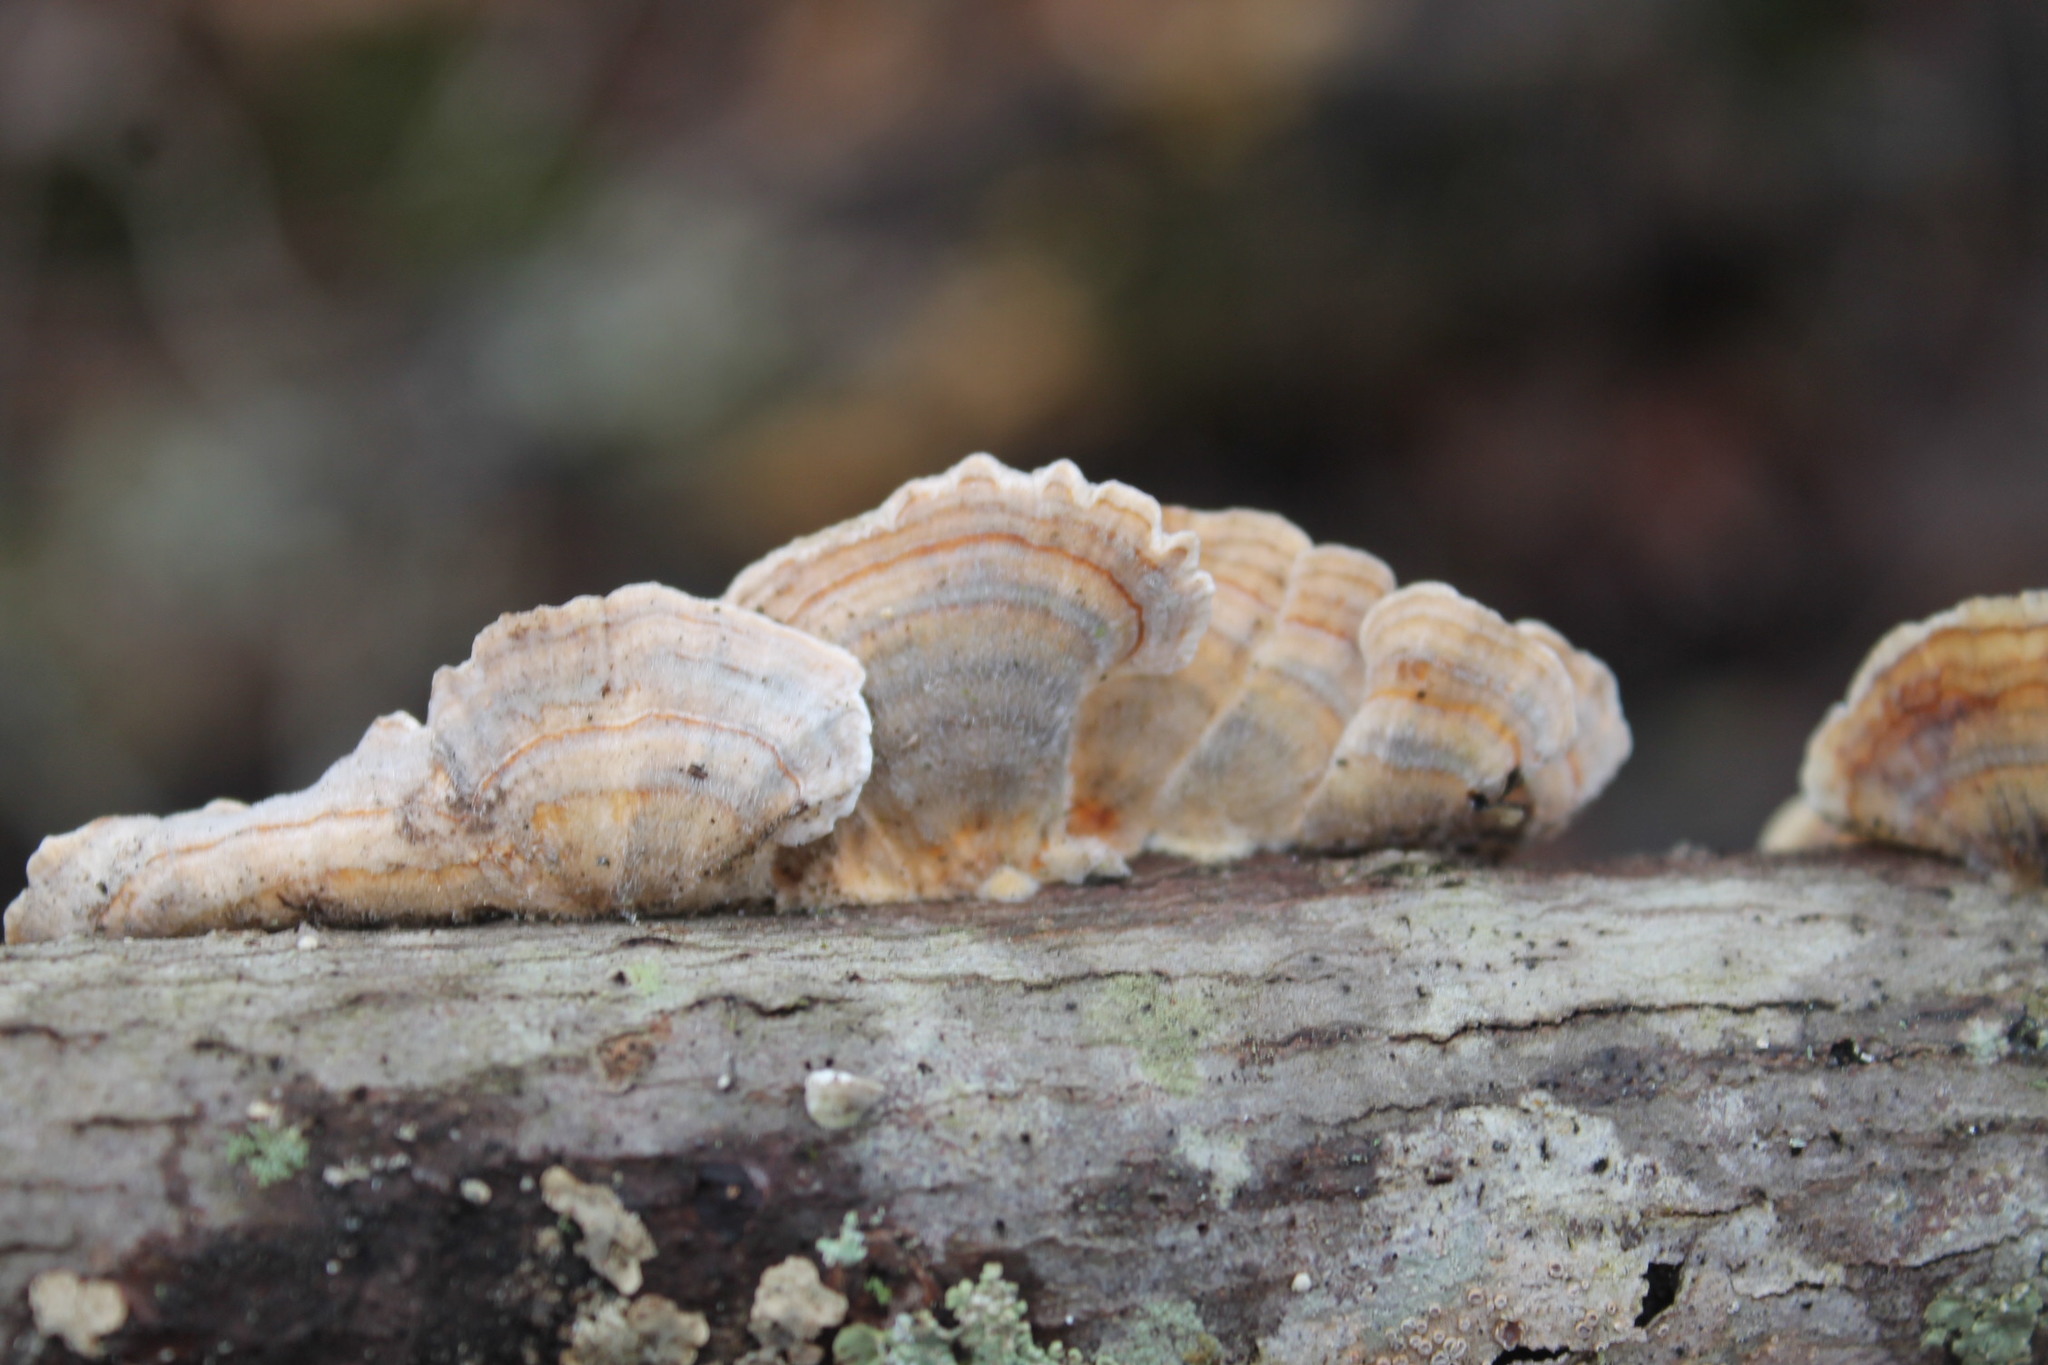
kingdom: Fungi
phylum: Basidiomycota
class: Agaricomycetes
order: Polyporales
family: Polyporaceae
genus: Trametes
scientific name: Trametes versicolor
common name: Turkeytail
